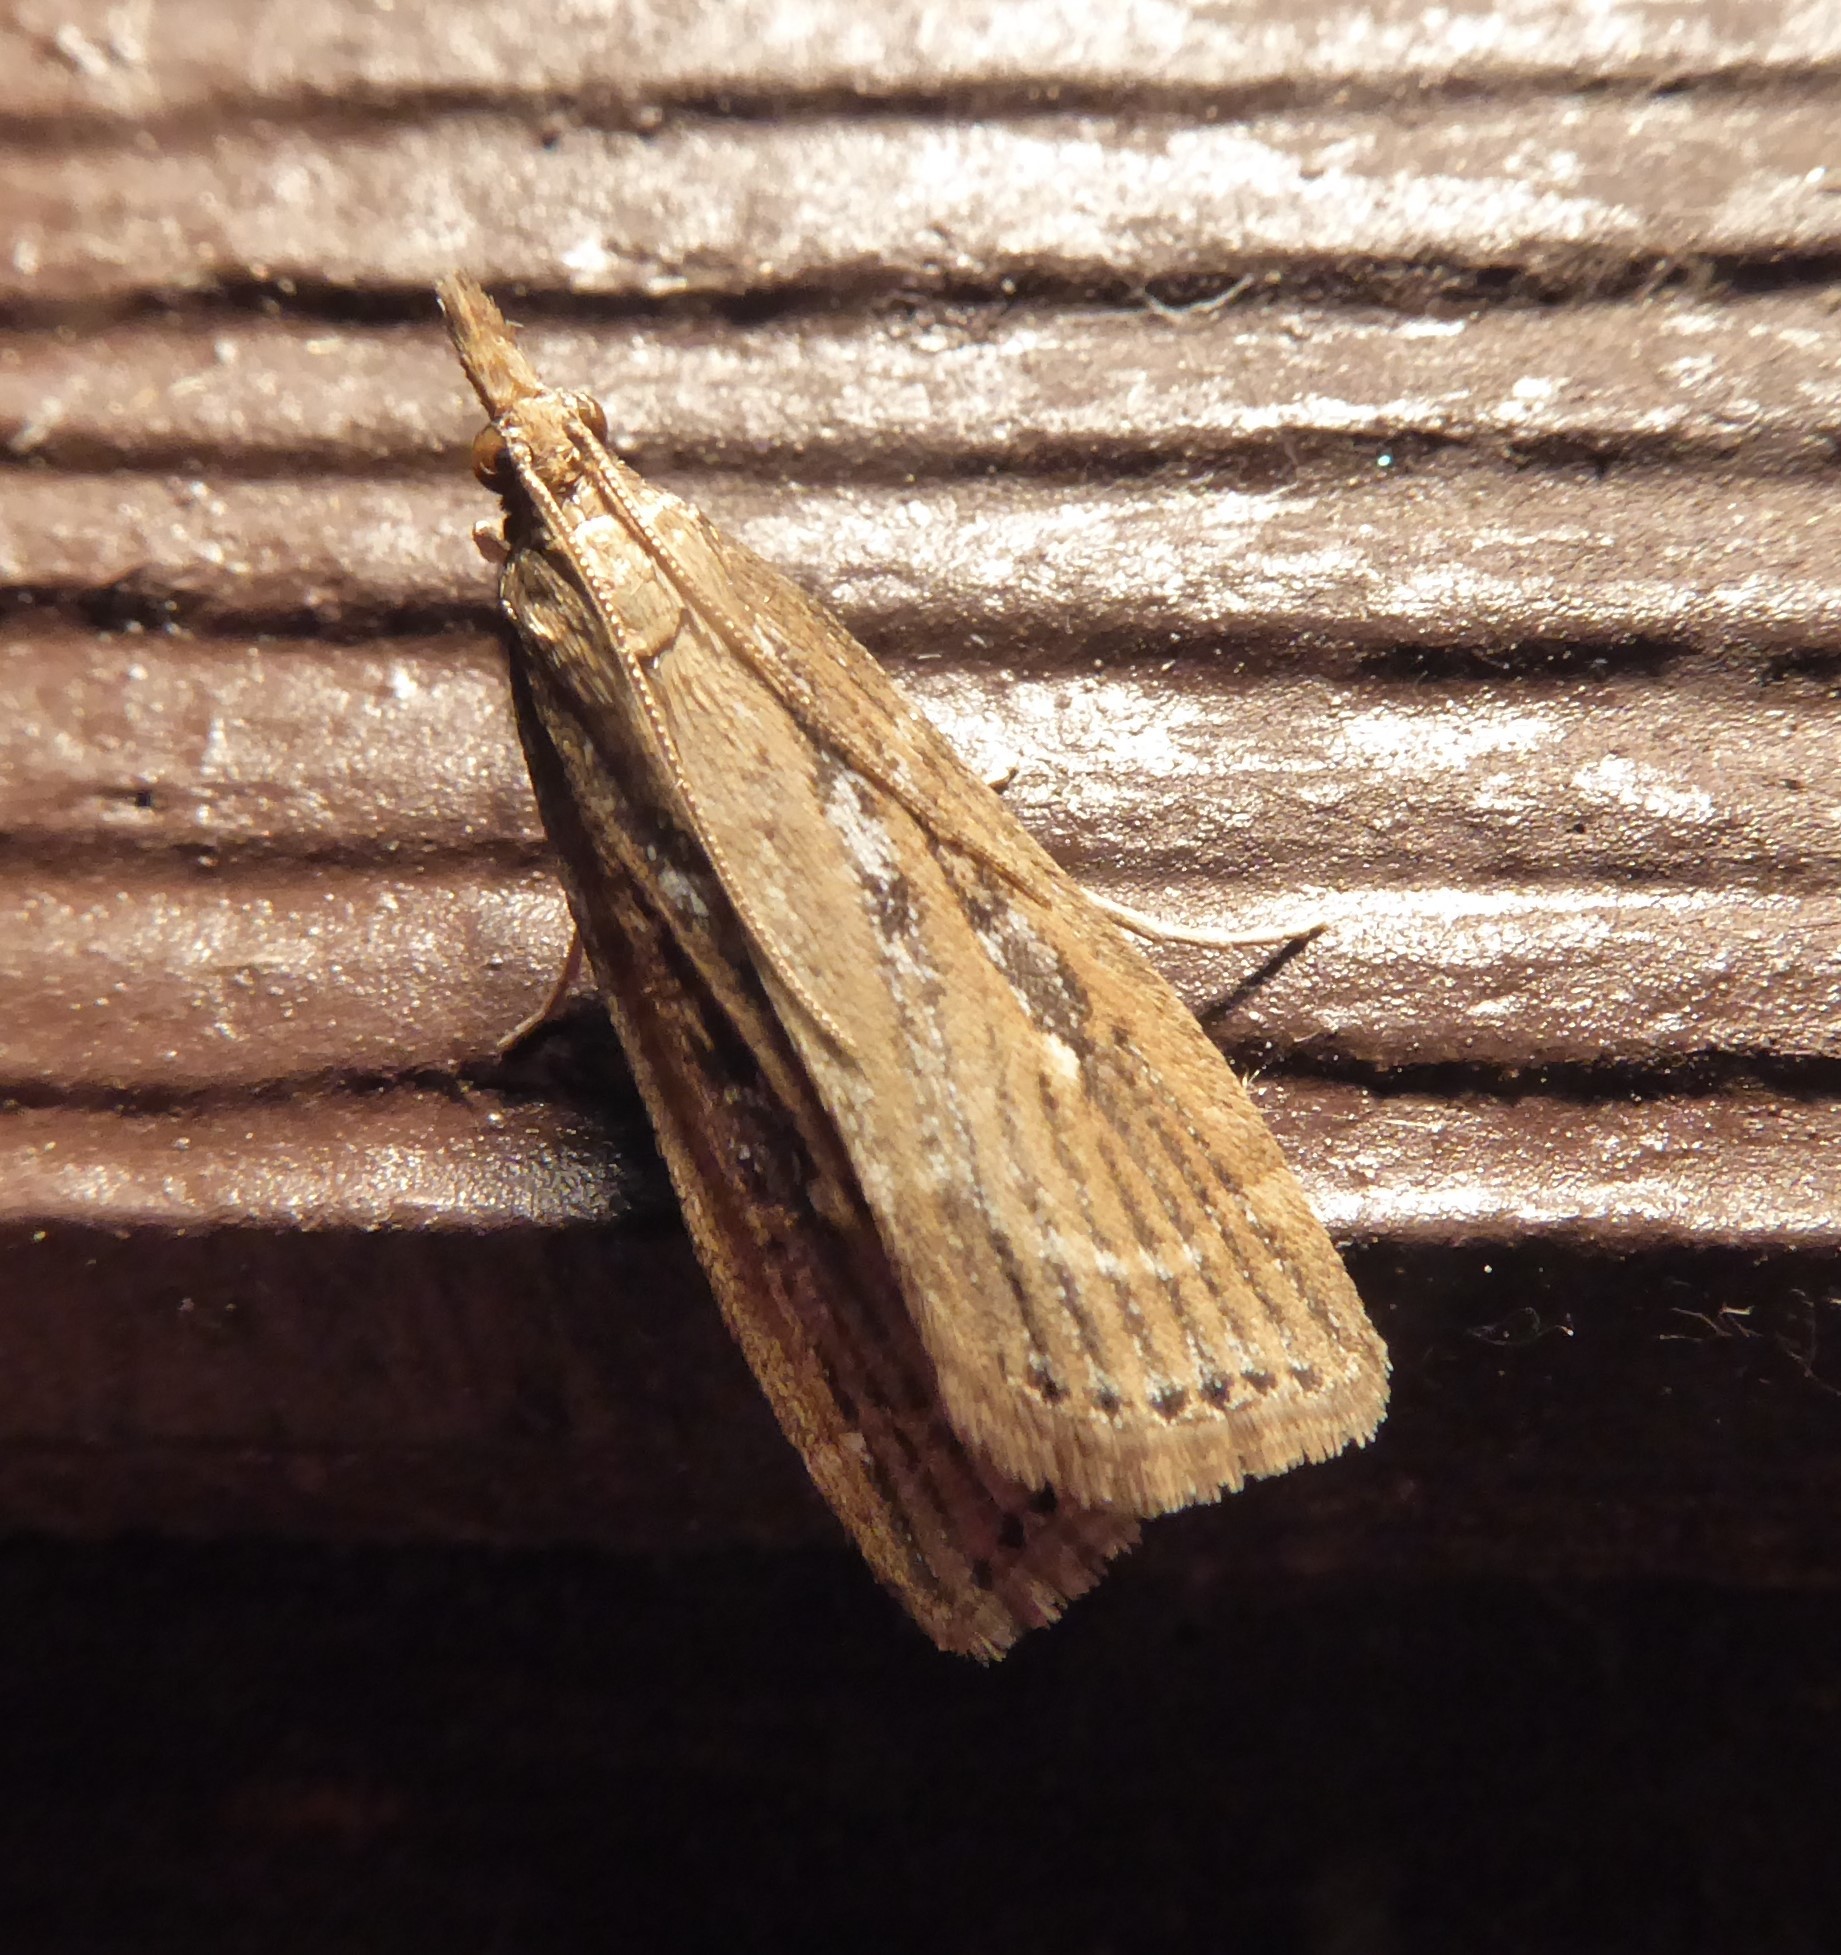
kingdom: Animalia
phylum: Arthropoda
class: Insecta
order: Lepidoptera
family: Crambidae
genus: Eudonia
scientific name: Eudonia octophora
